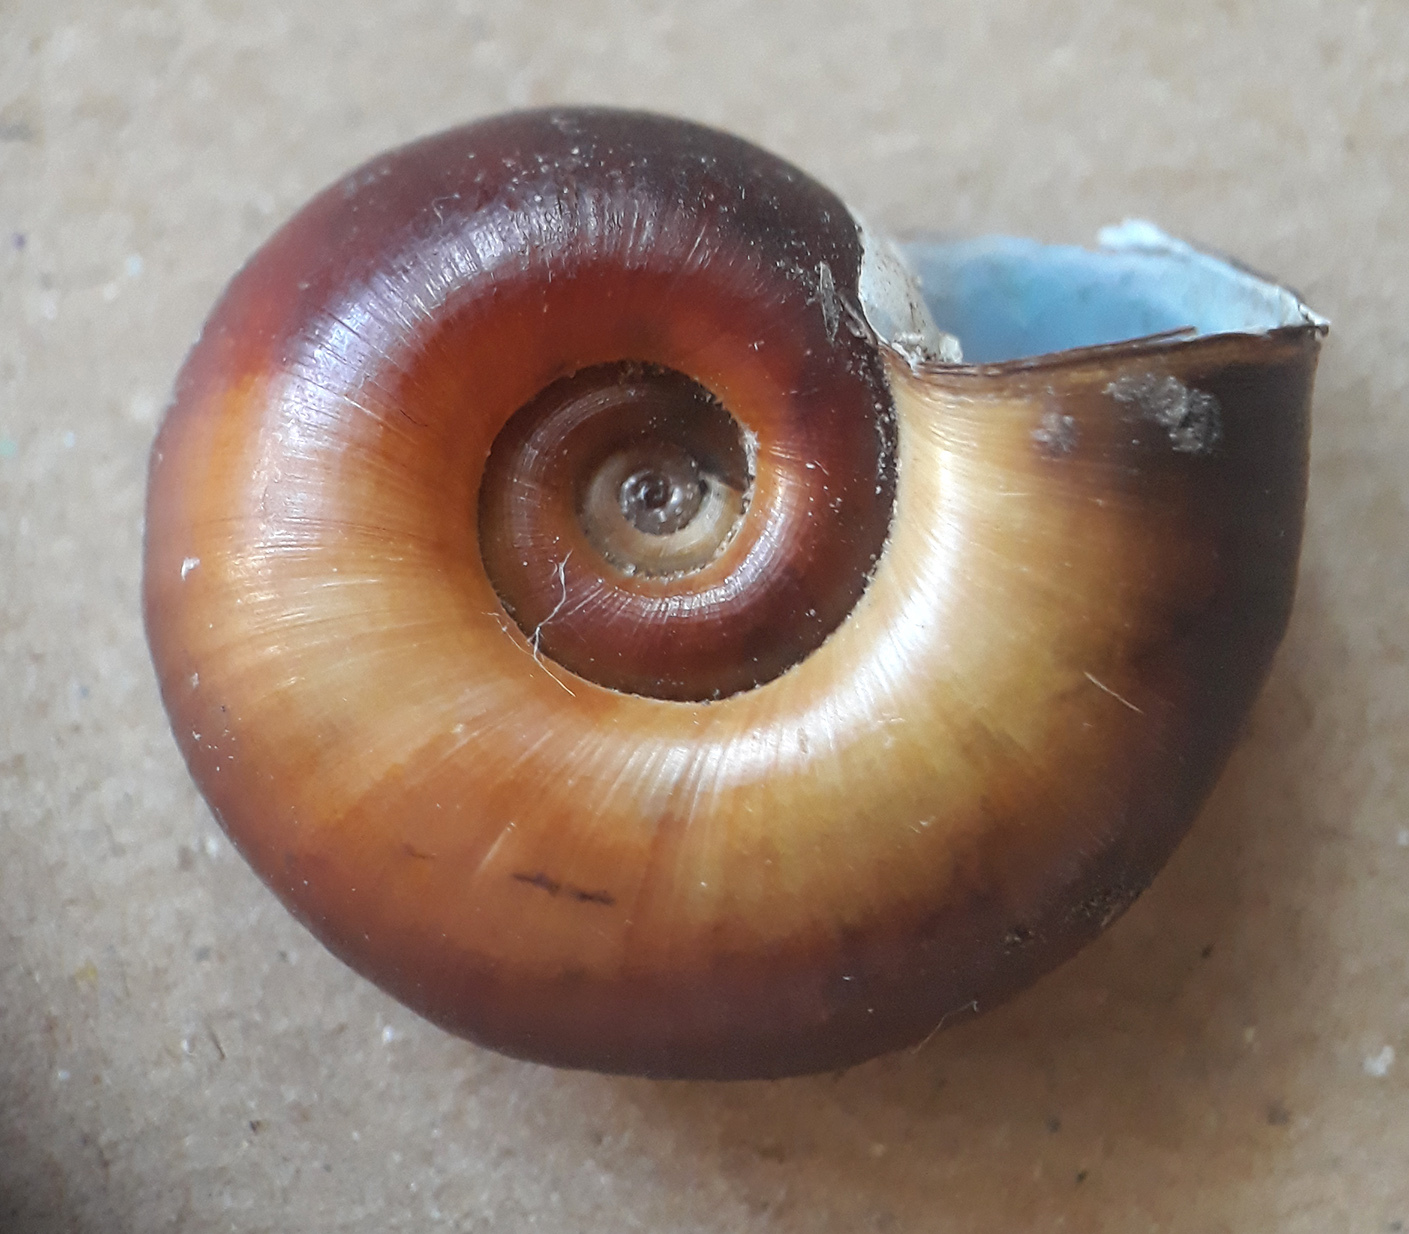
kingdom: Animalia
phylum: Mollusca
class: Gastropoda
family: Planorbidae
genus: Planorbarius
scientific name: Planorbarius corneus
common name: Great ramshorn
